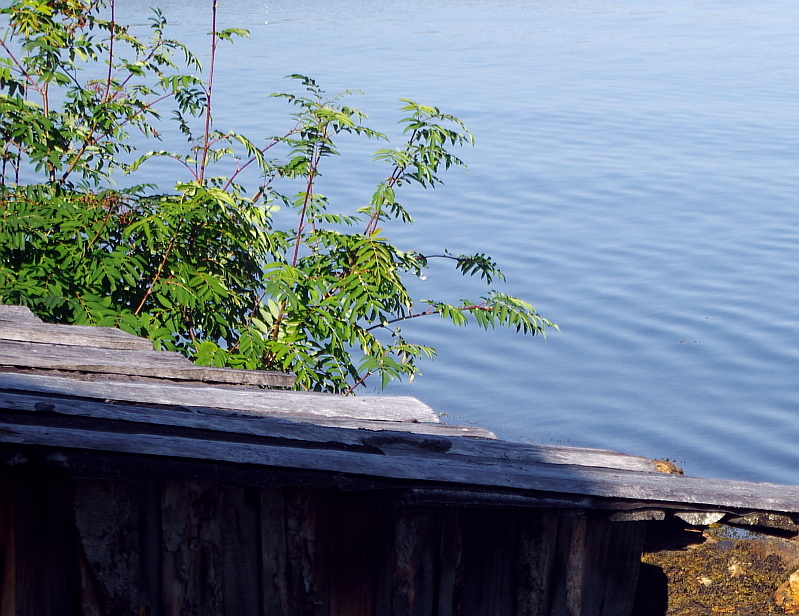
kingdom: Plantae
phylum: Tracheophyta
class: Magnoliopsida
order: Rosales
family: Rosaceae
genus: Sorbus
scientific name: Sorbus aucuparia
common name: Rowan
